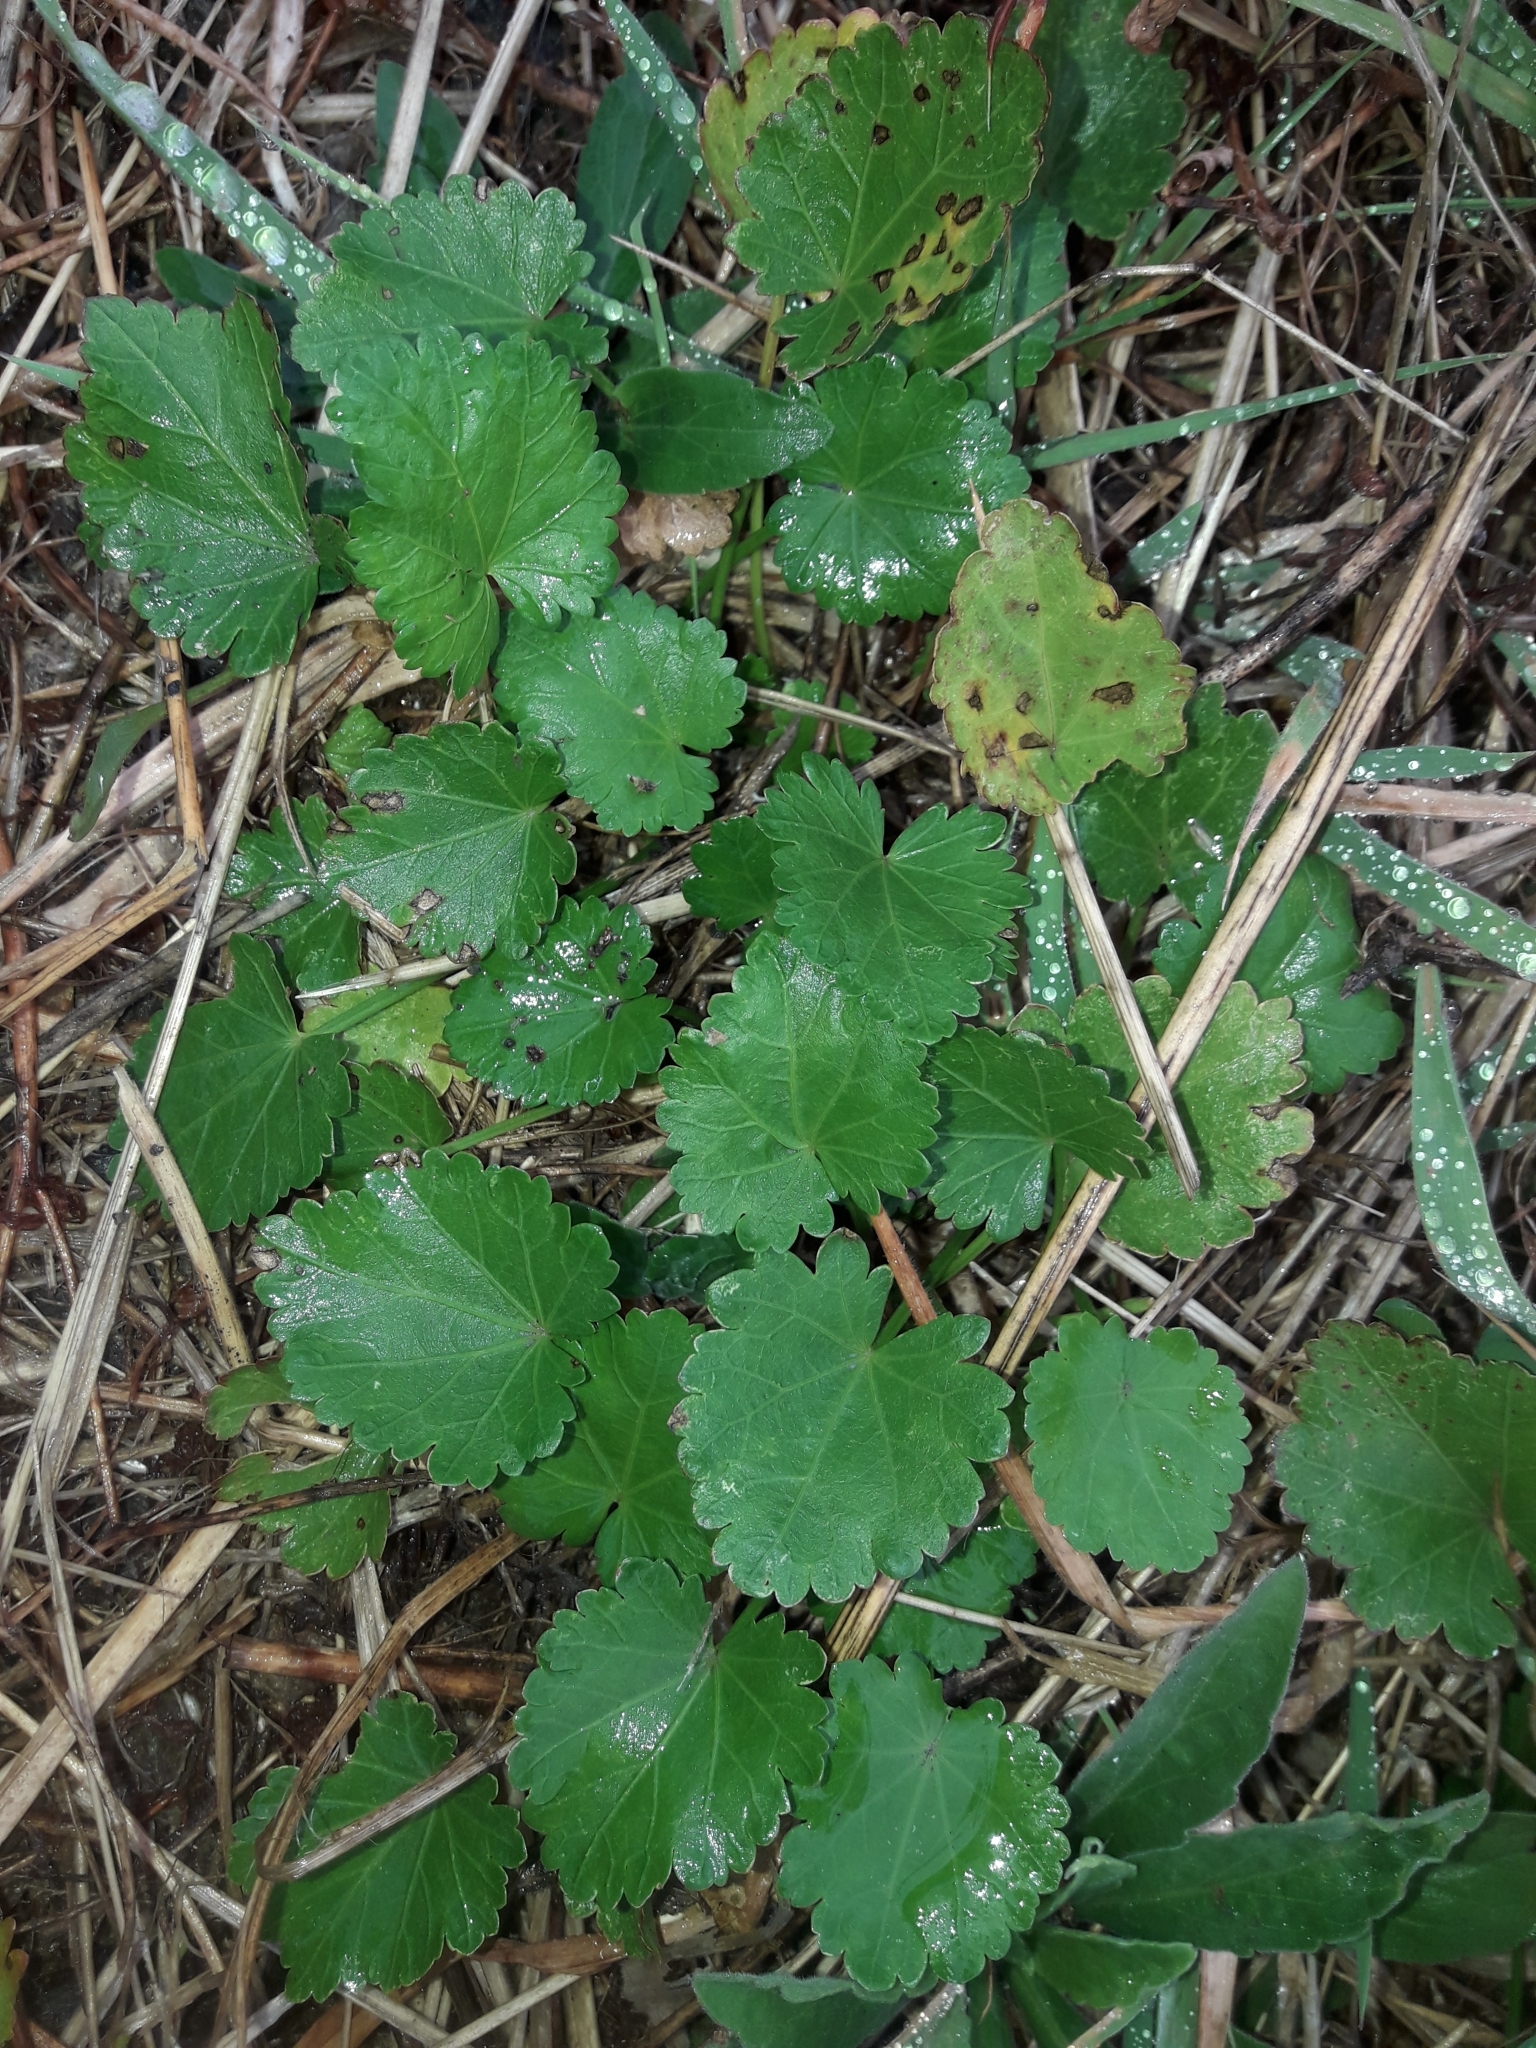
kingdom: Plantae
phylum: Tracheophyta
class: Magnoliopsida
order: Malvales
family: Malvaceae
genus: Modiola
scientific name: Modiola caroliniana
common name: Carolina bristlemallow
